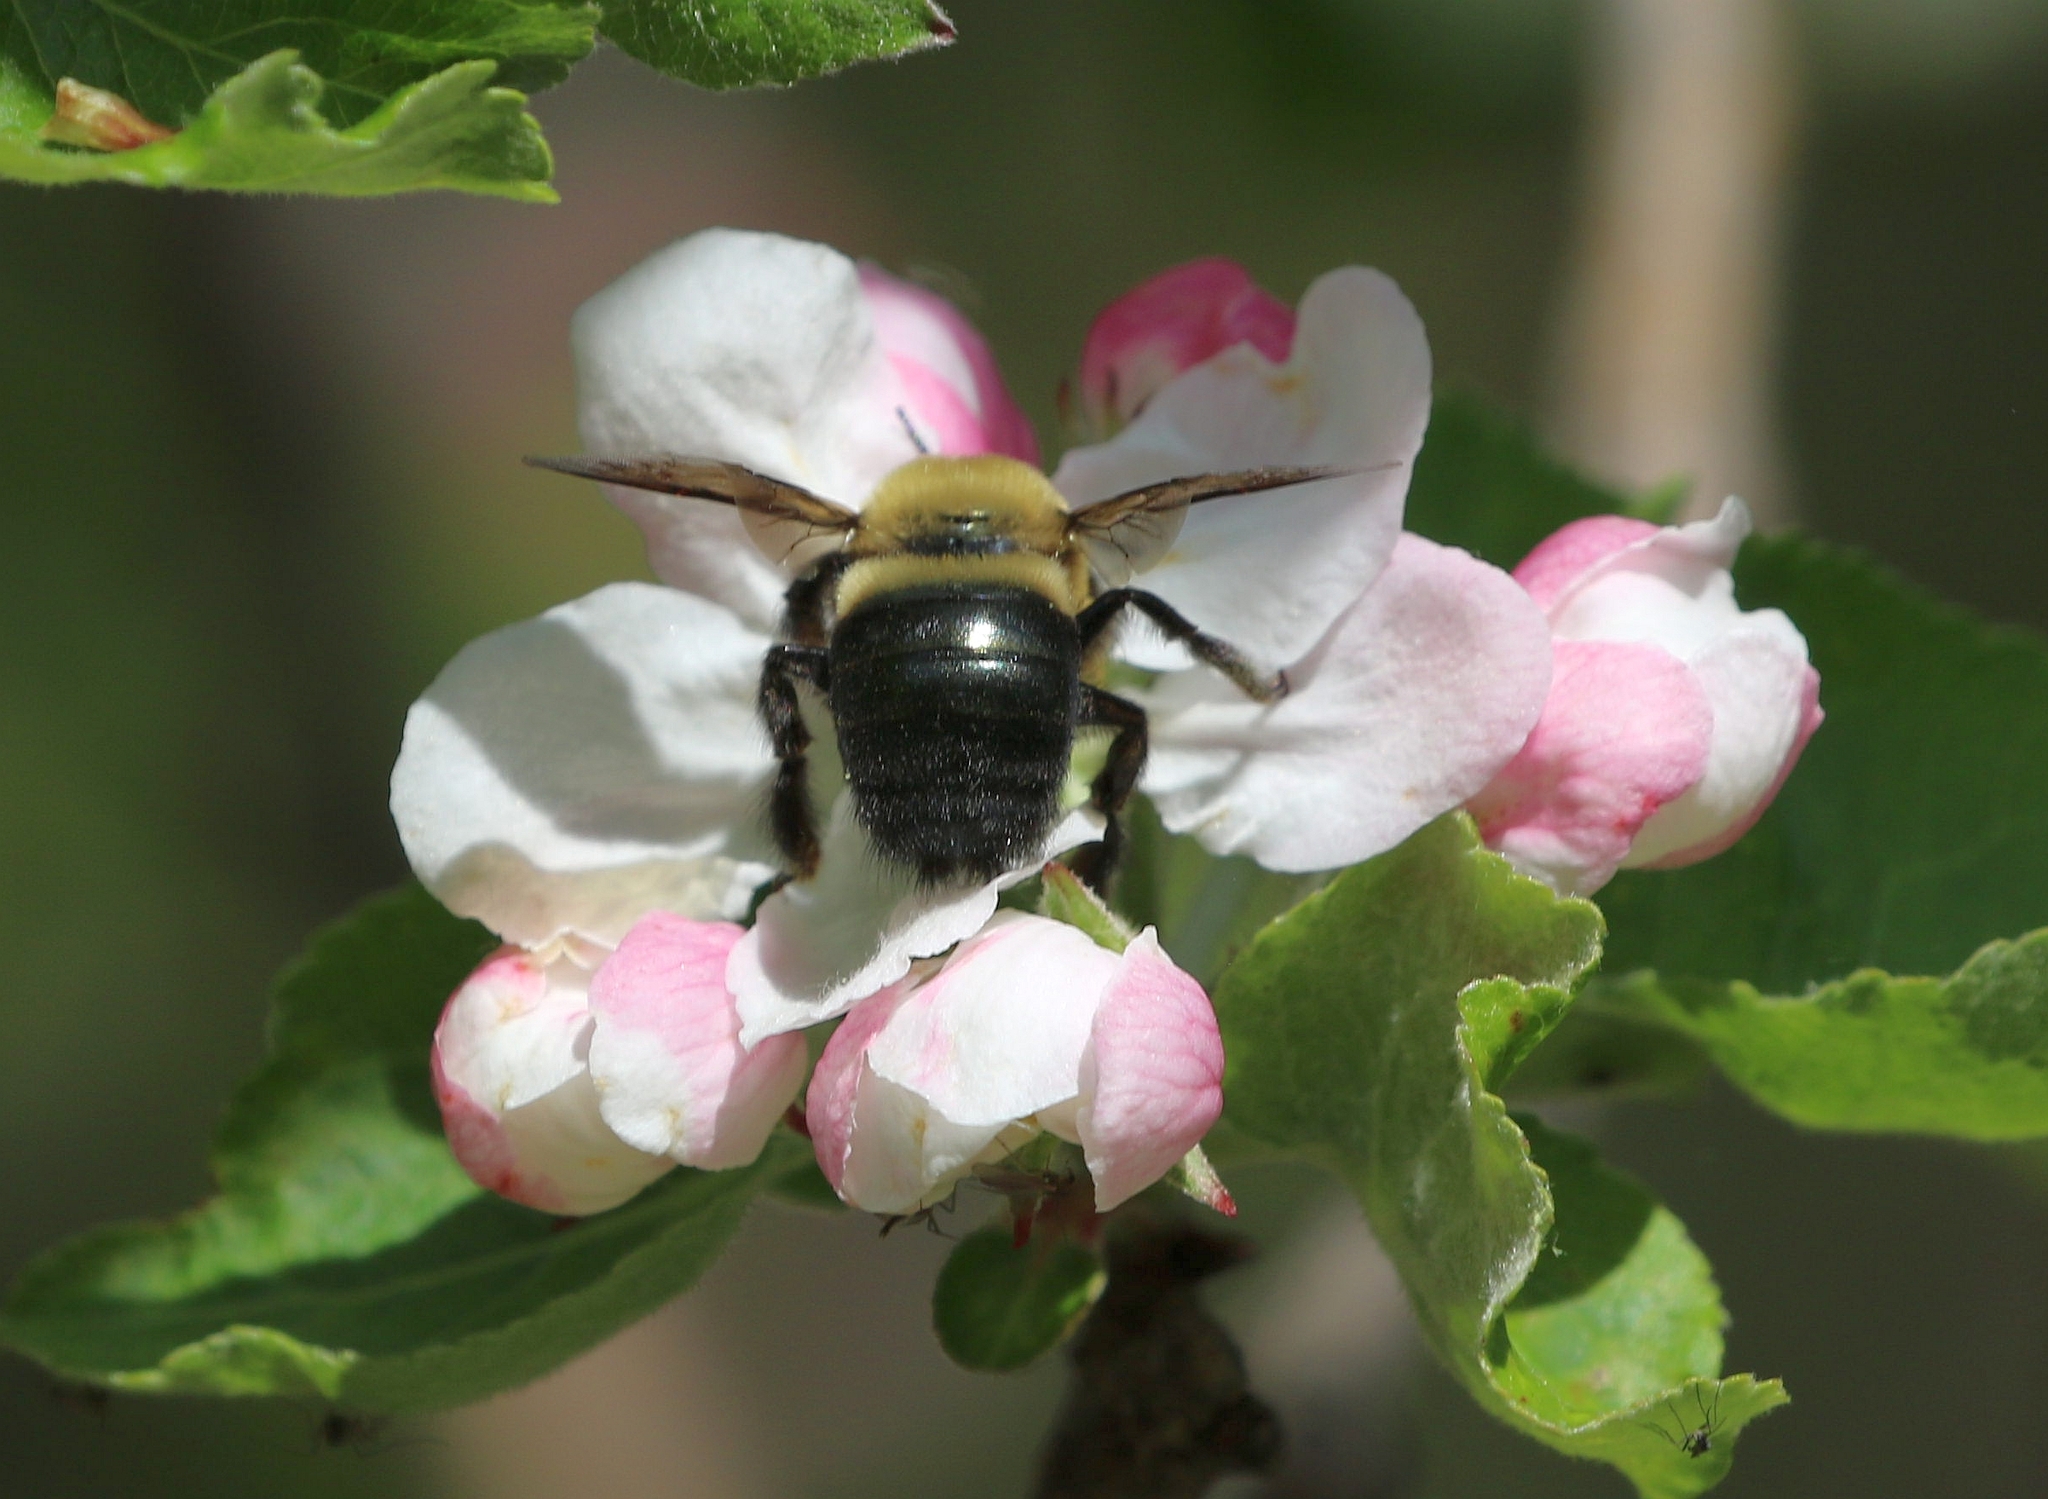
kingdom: Animalia
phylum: Arthropoda
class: Insecta
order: Hymenoptera
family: Apidae
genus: Xylocopa
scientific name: Xylocopa virginica
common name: Carpenter bee
